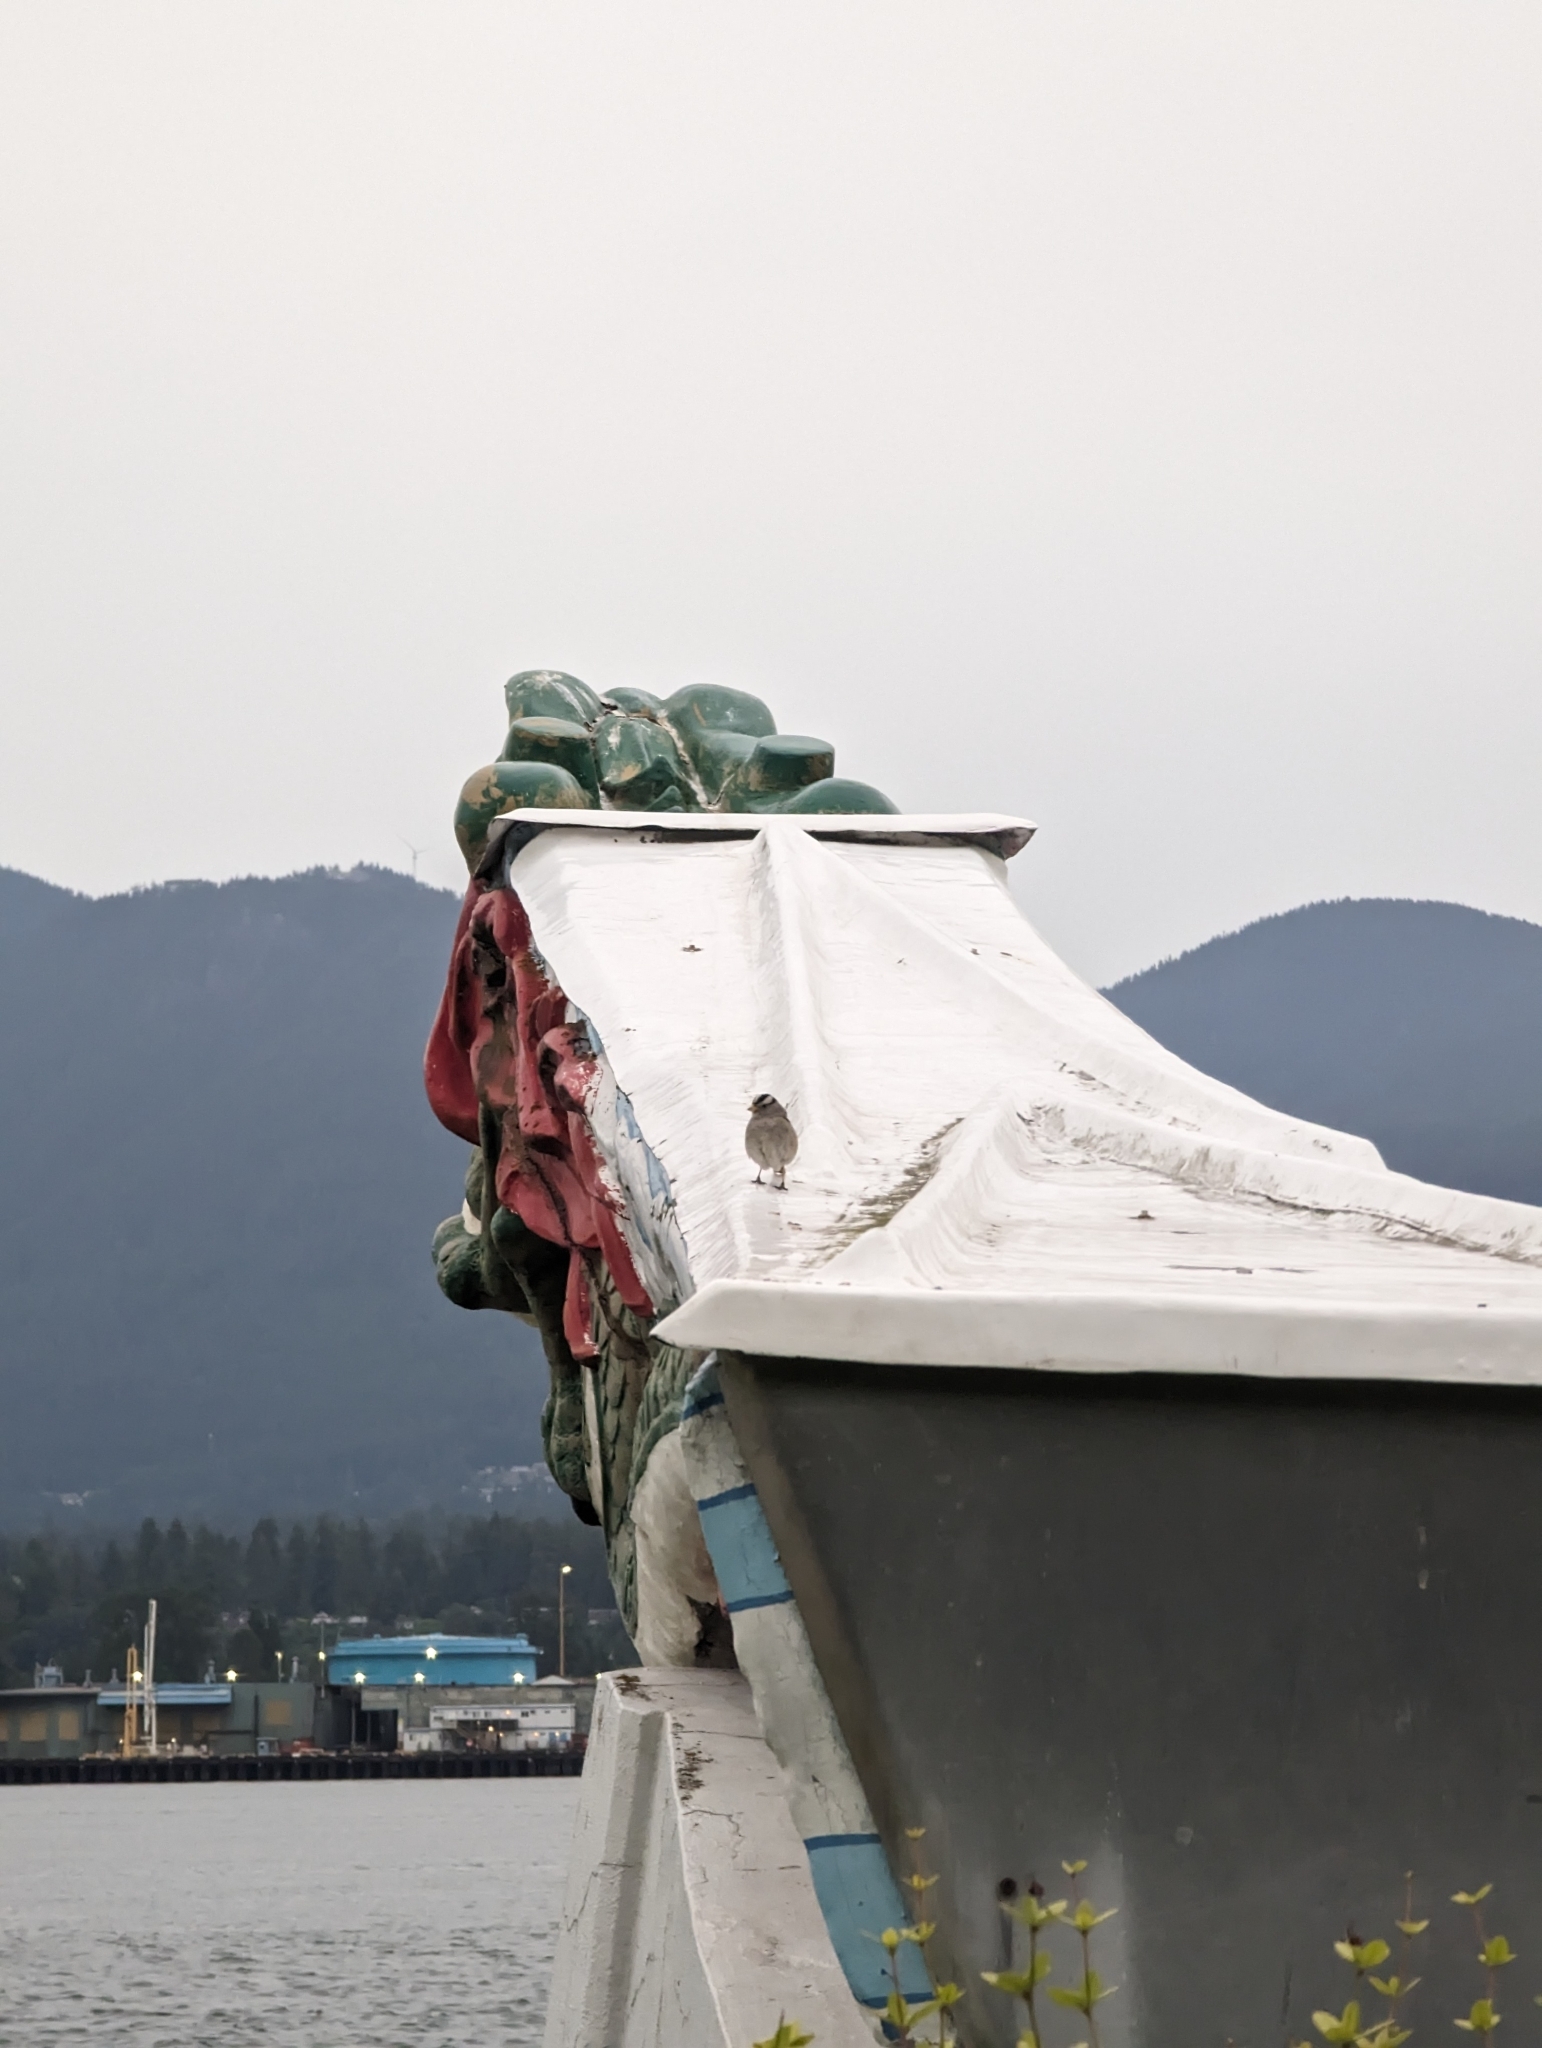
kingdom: Animalia
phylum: Chordata
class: Aves
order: Passeriformes
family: Passerellidae
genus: Zonotrichia
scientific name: Zonotrichia leucophrys
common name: White-crowned sparrow
